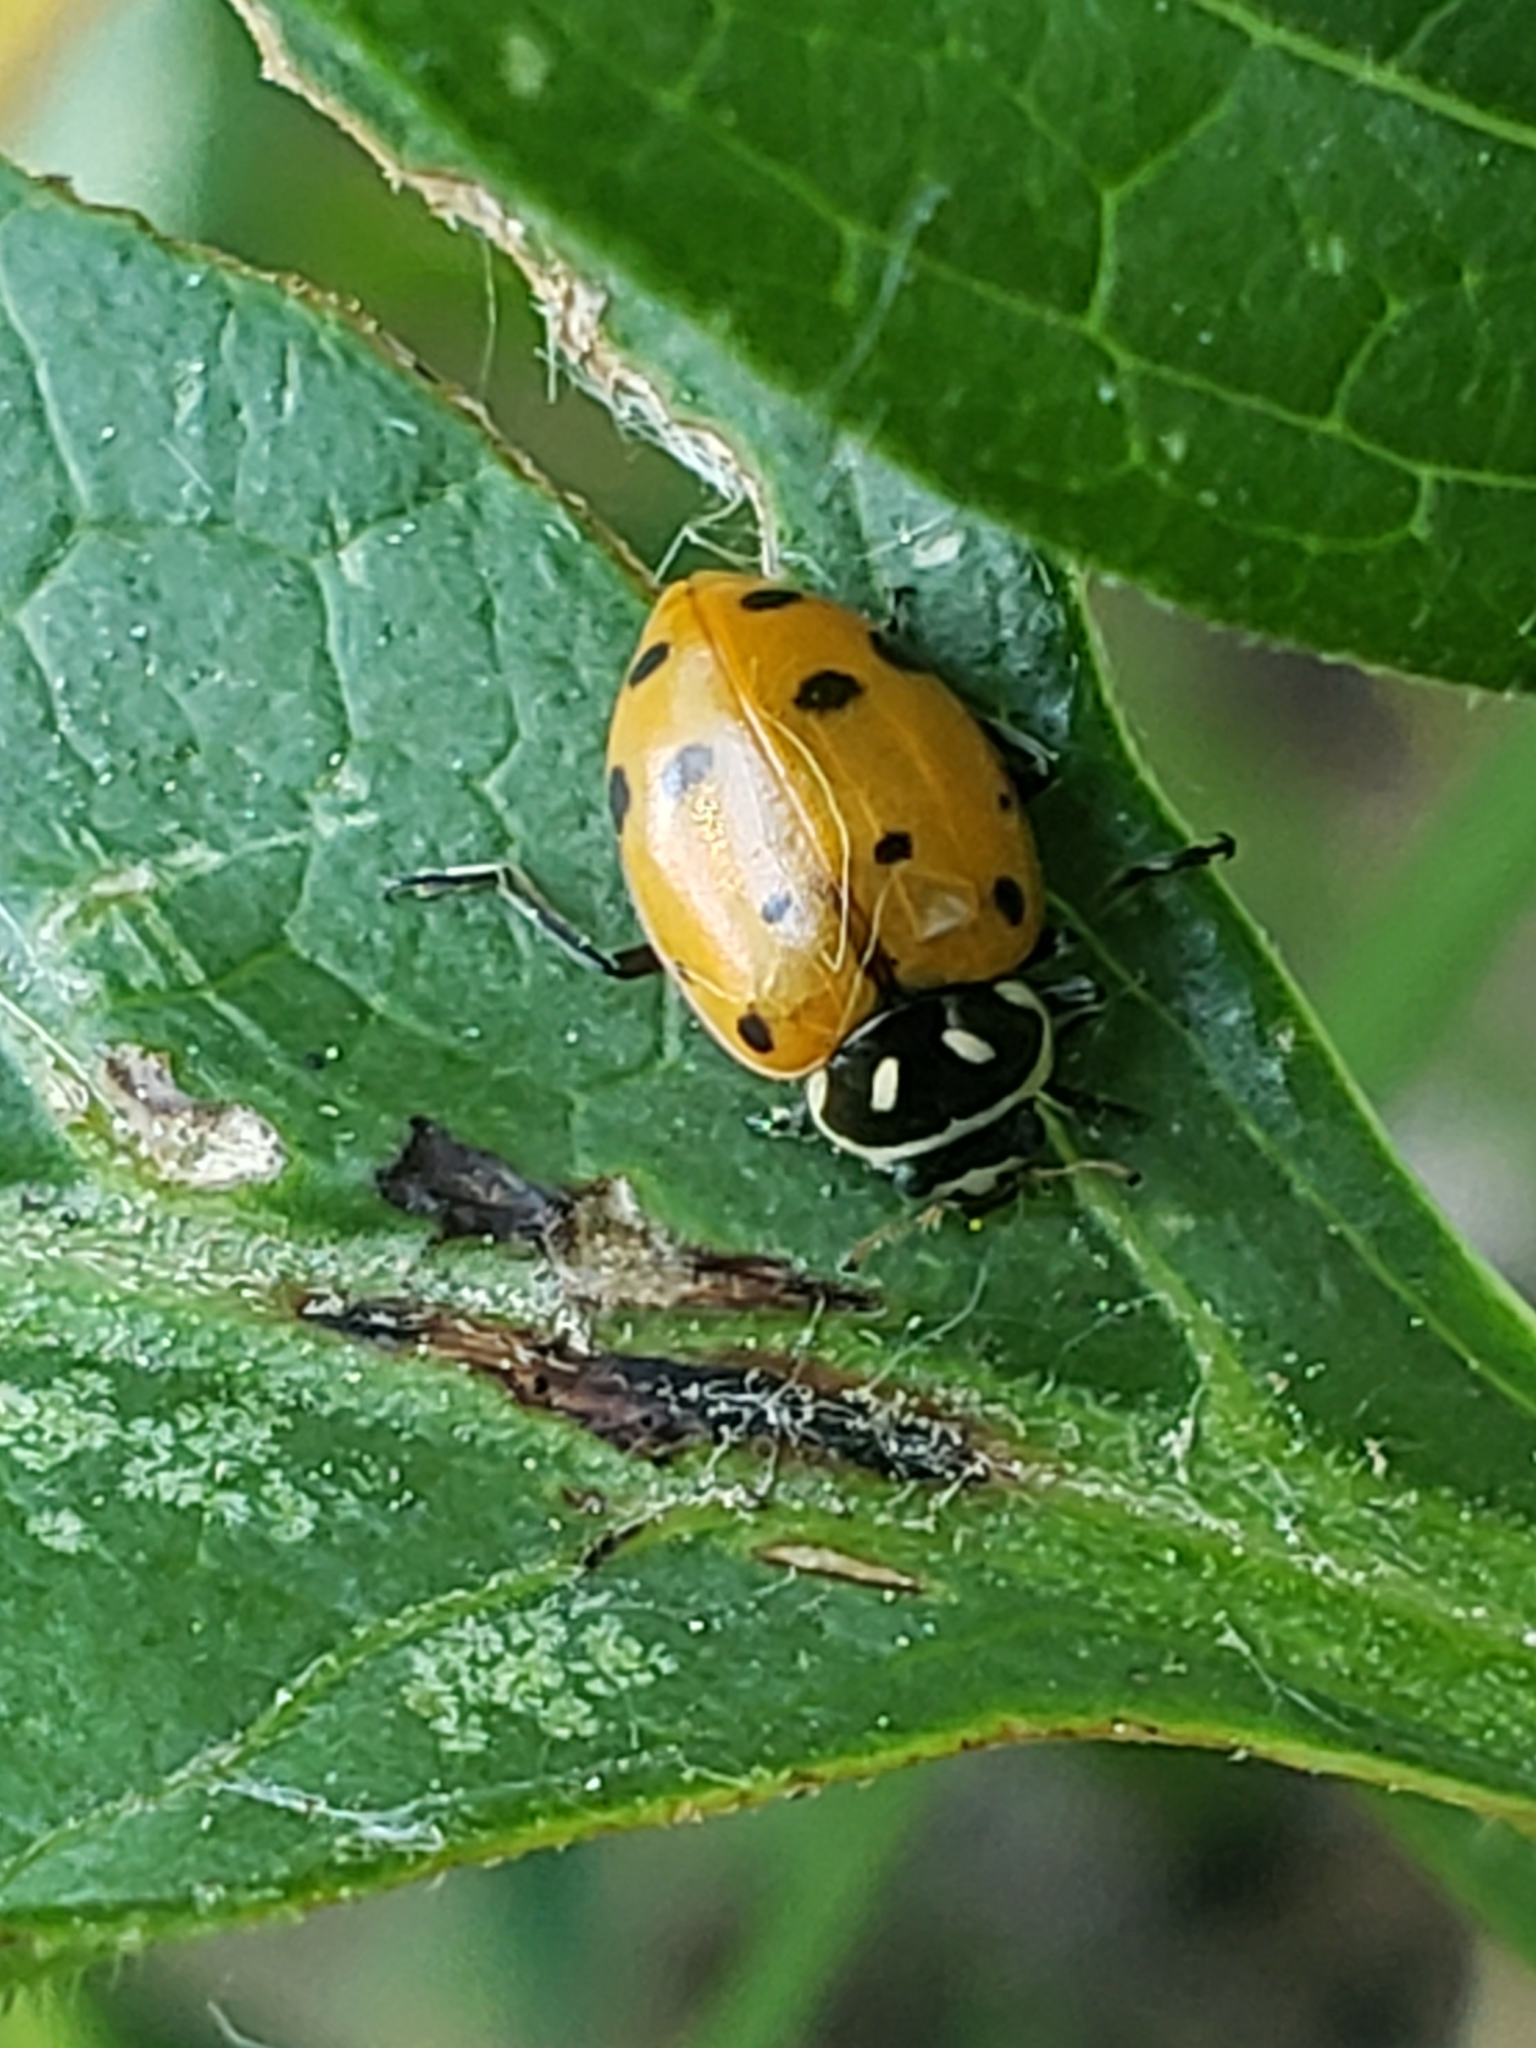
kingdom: Animalia
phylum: Arthropoda
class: Insecta
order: Coleoptera
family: Coccinellidae
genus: Hippodamia
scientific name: Hippodamia convergens
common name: Convergent lady beetle
